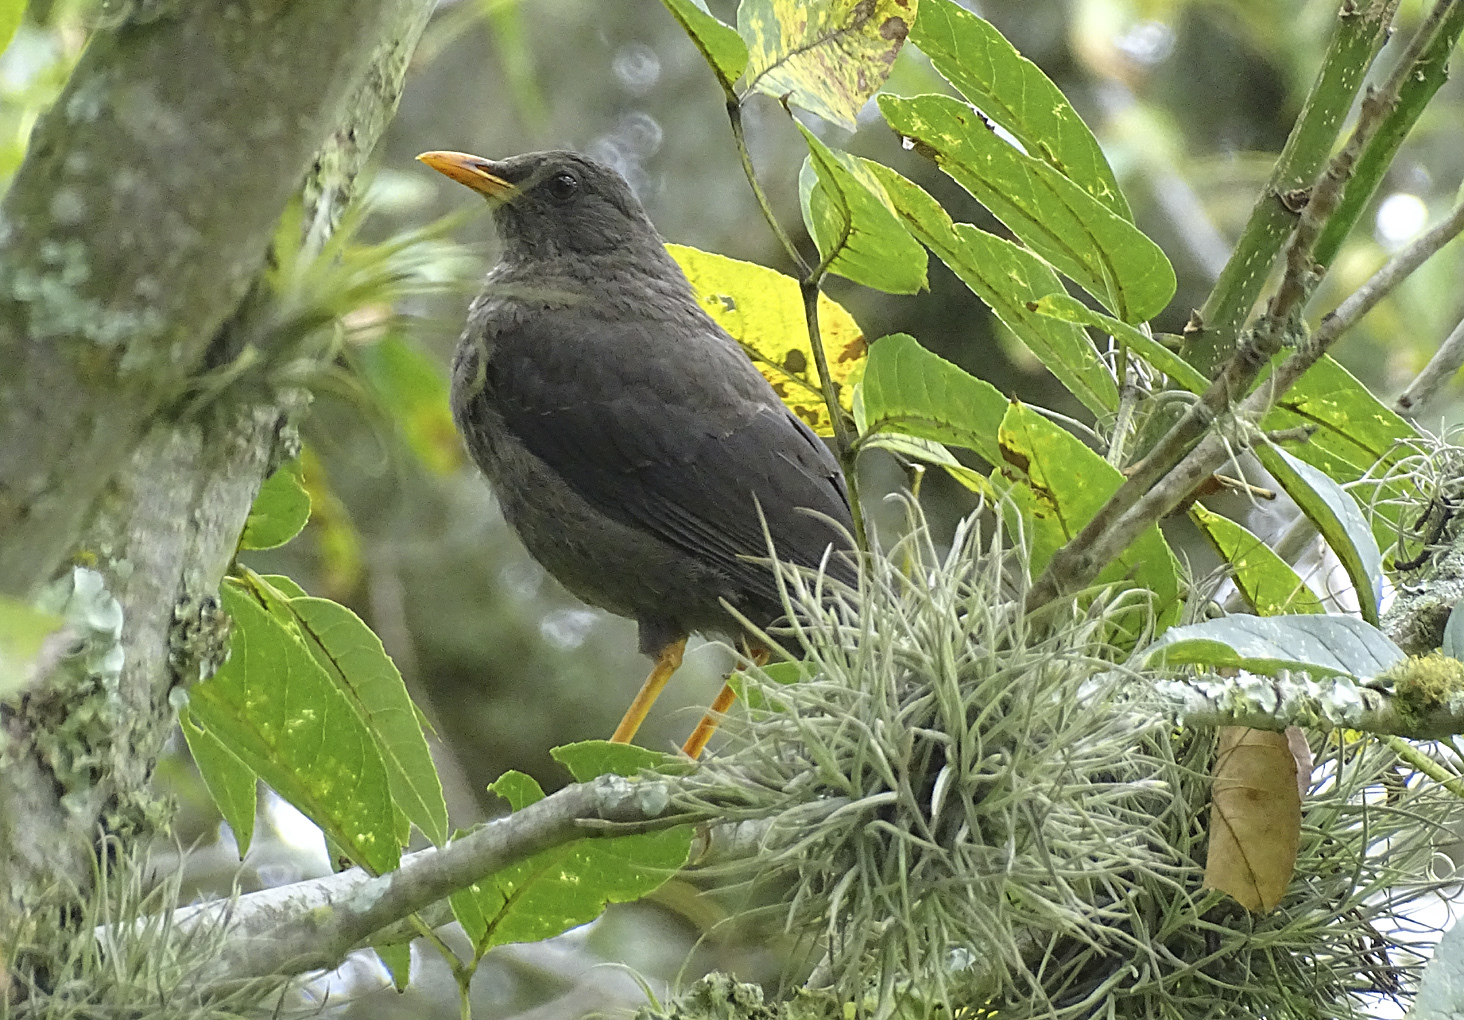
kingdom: Animalia
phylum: Chordata
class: Aves
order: Passeriformes
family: Turdidae
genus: Turdus
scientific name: Turdus fuscater
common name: Great thrush
